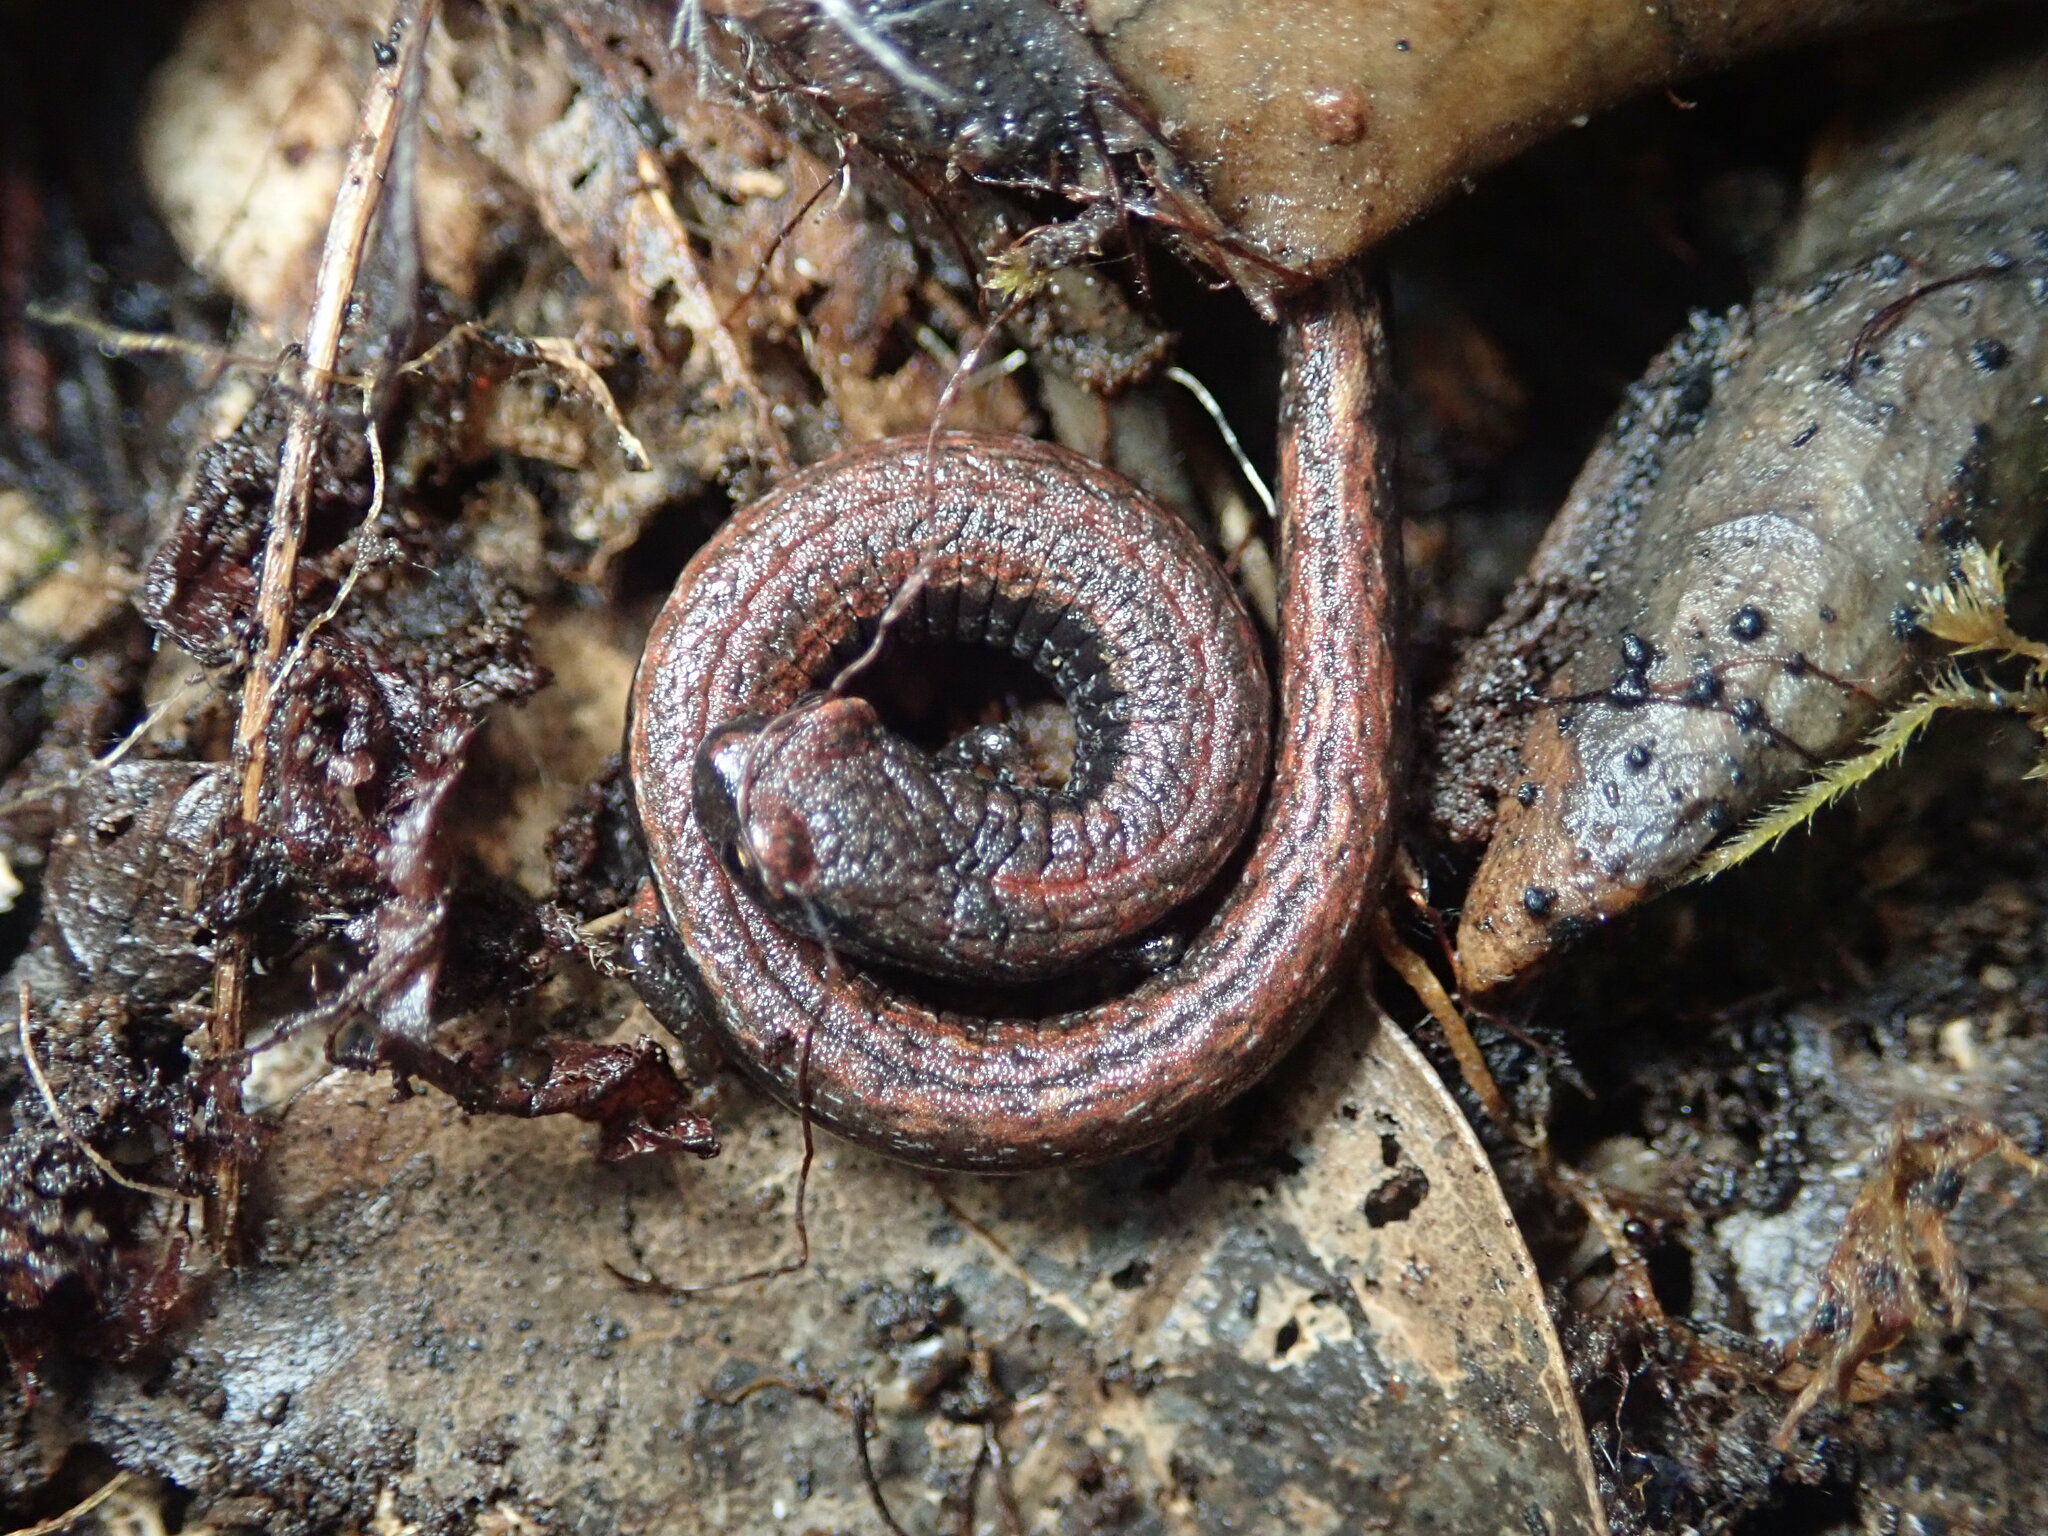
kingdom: Animalia
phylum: Chordata
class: Amphibia
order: Caudata
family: Plethodontidae
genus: Batrachoseps
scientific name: Batrachoseps attenuatus
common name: California slender salamander
